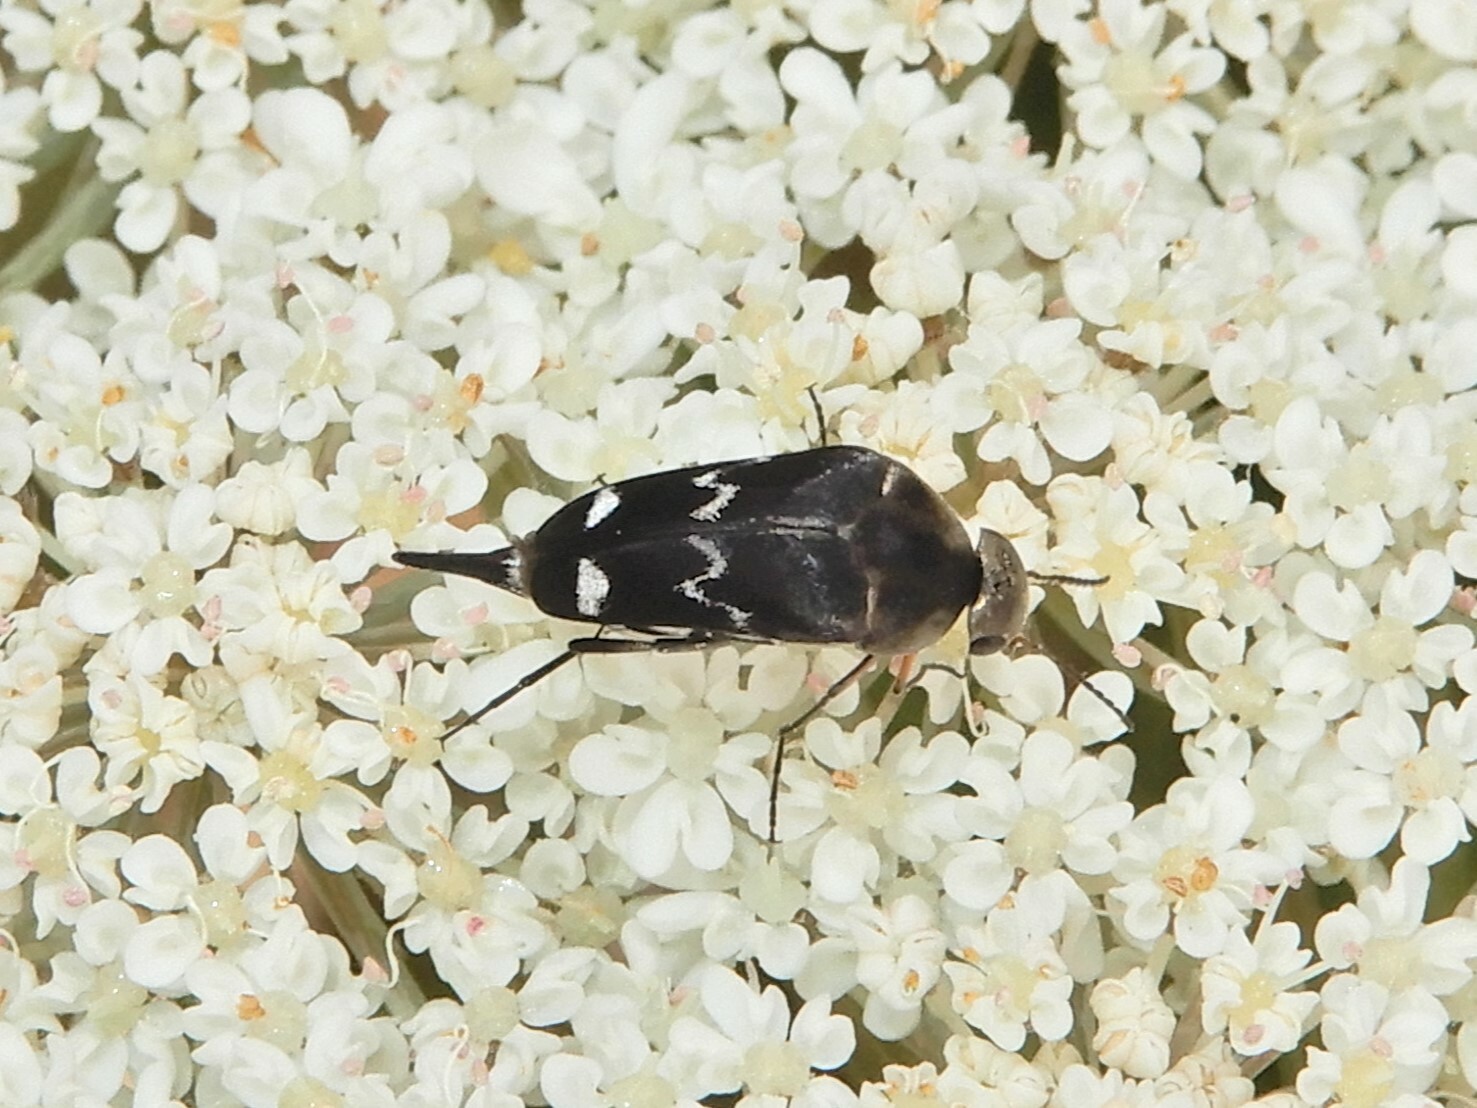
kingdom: Animalia
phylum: Arthropoda
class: Insecta
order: Coleoptera
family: Mordellidae
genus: Mordella
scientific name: Mordella
